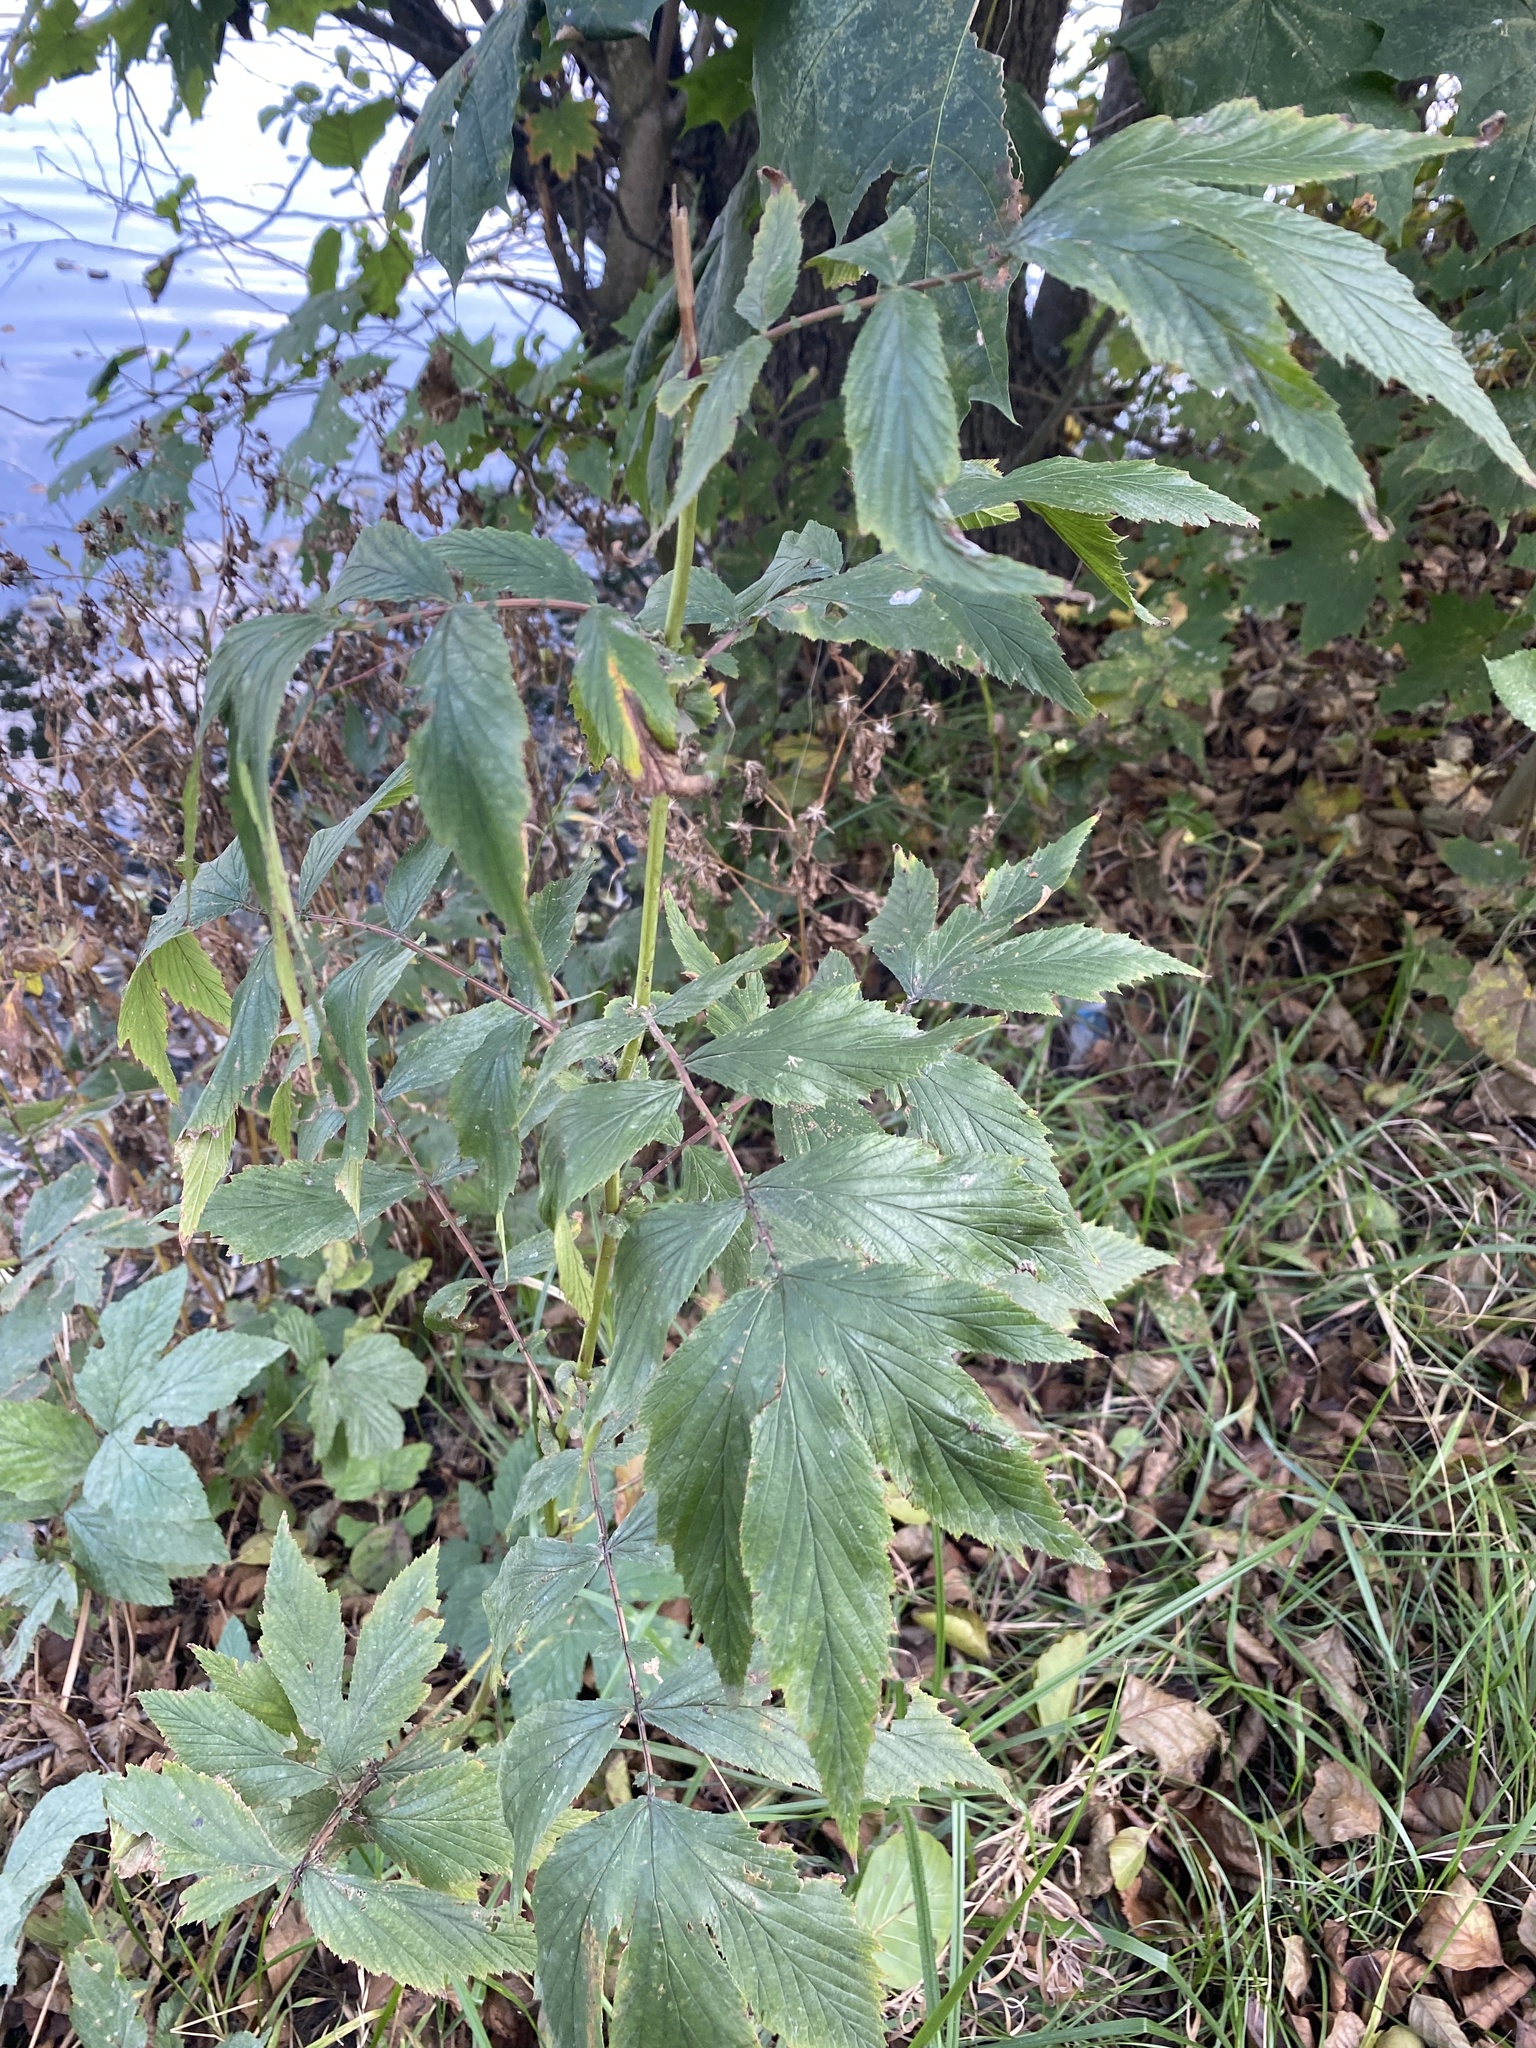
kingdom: Plantae
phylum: Tracheophyta
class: Magnoliopsida
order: Rosales
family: Rosaceae
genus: Filipendula
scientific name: Filipendula ulmaria
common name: Meadowsweet
